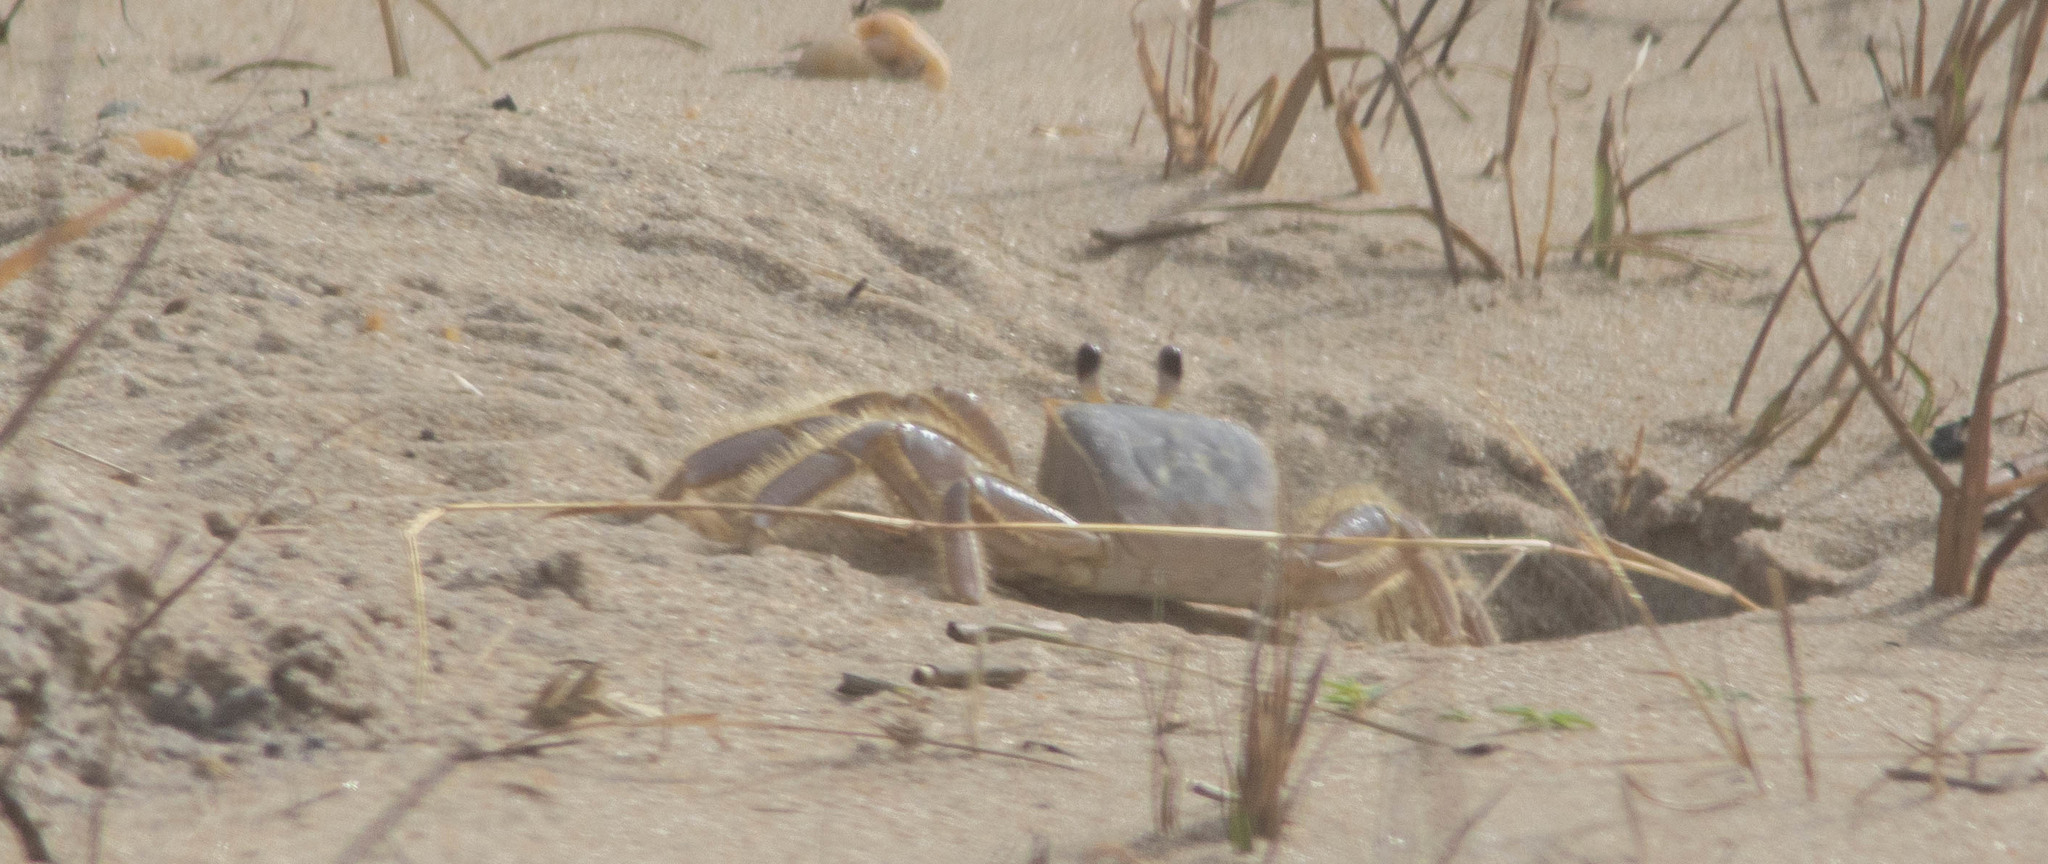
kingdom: Animalia
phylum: Arthropoda
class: Malacostraca
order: Decapoda
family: Ocypodidae
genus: Ocypode
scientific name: Ocypode quadrata
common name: Ghost crab
